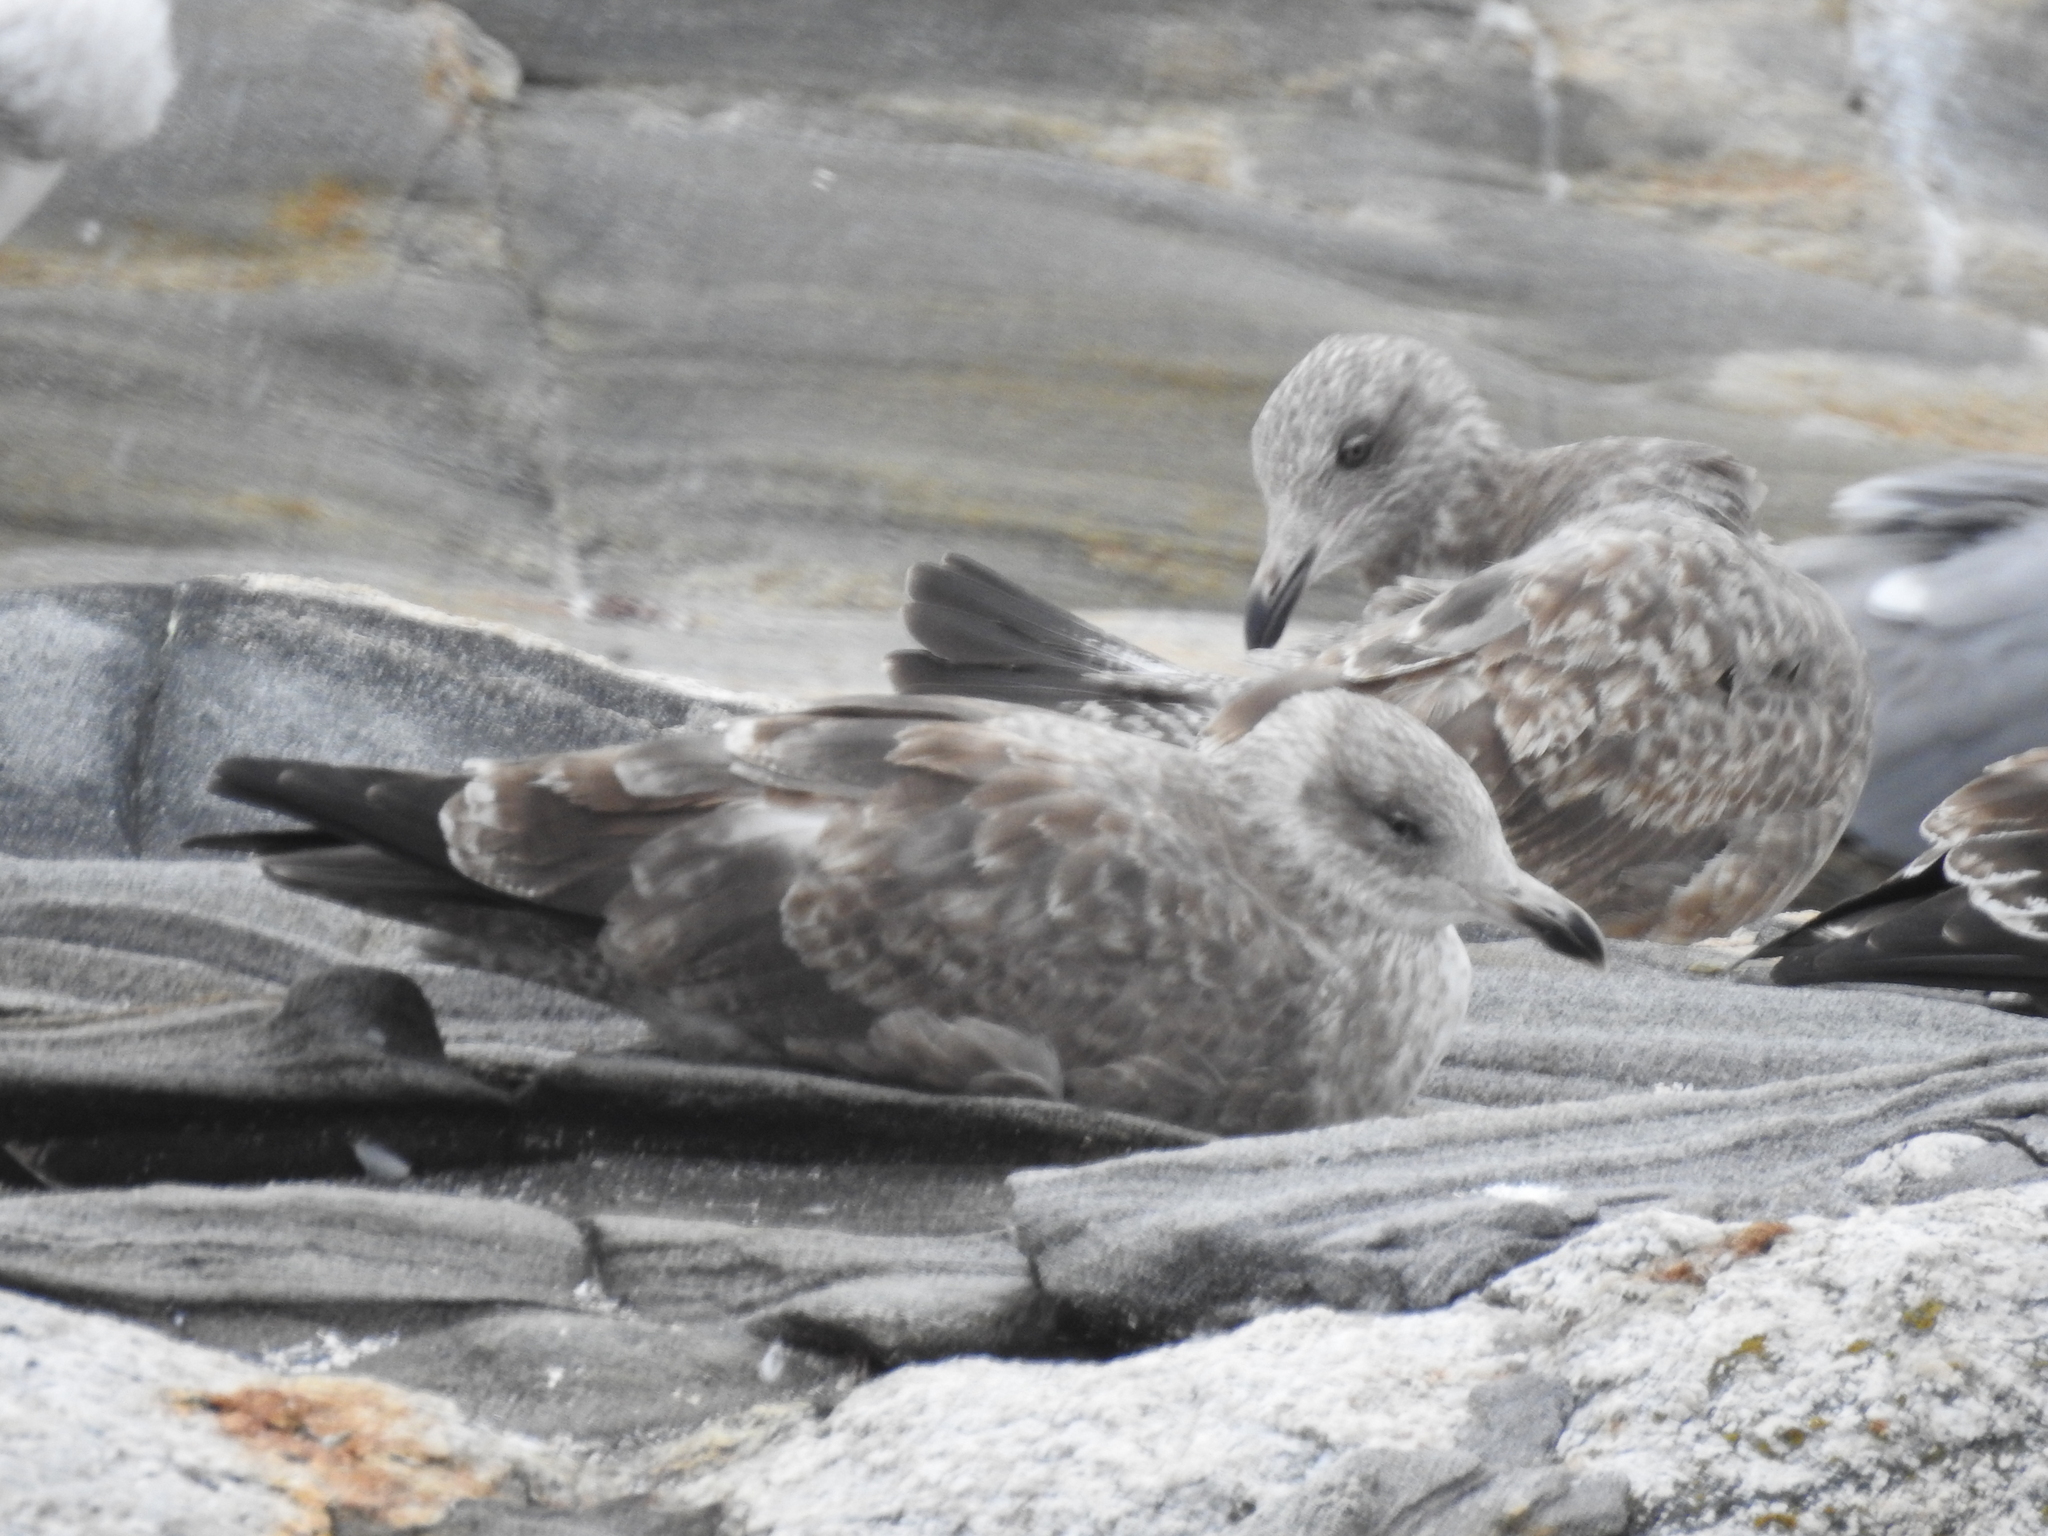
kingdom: Animalia
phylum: Chordata
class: Aves
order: Charadriiformes
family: Laridae
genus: Larus
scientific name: Larus argentatus
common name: Herring gull
